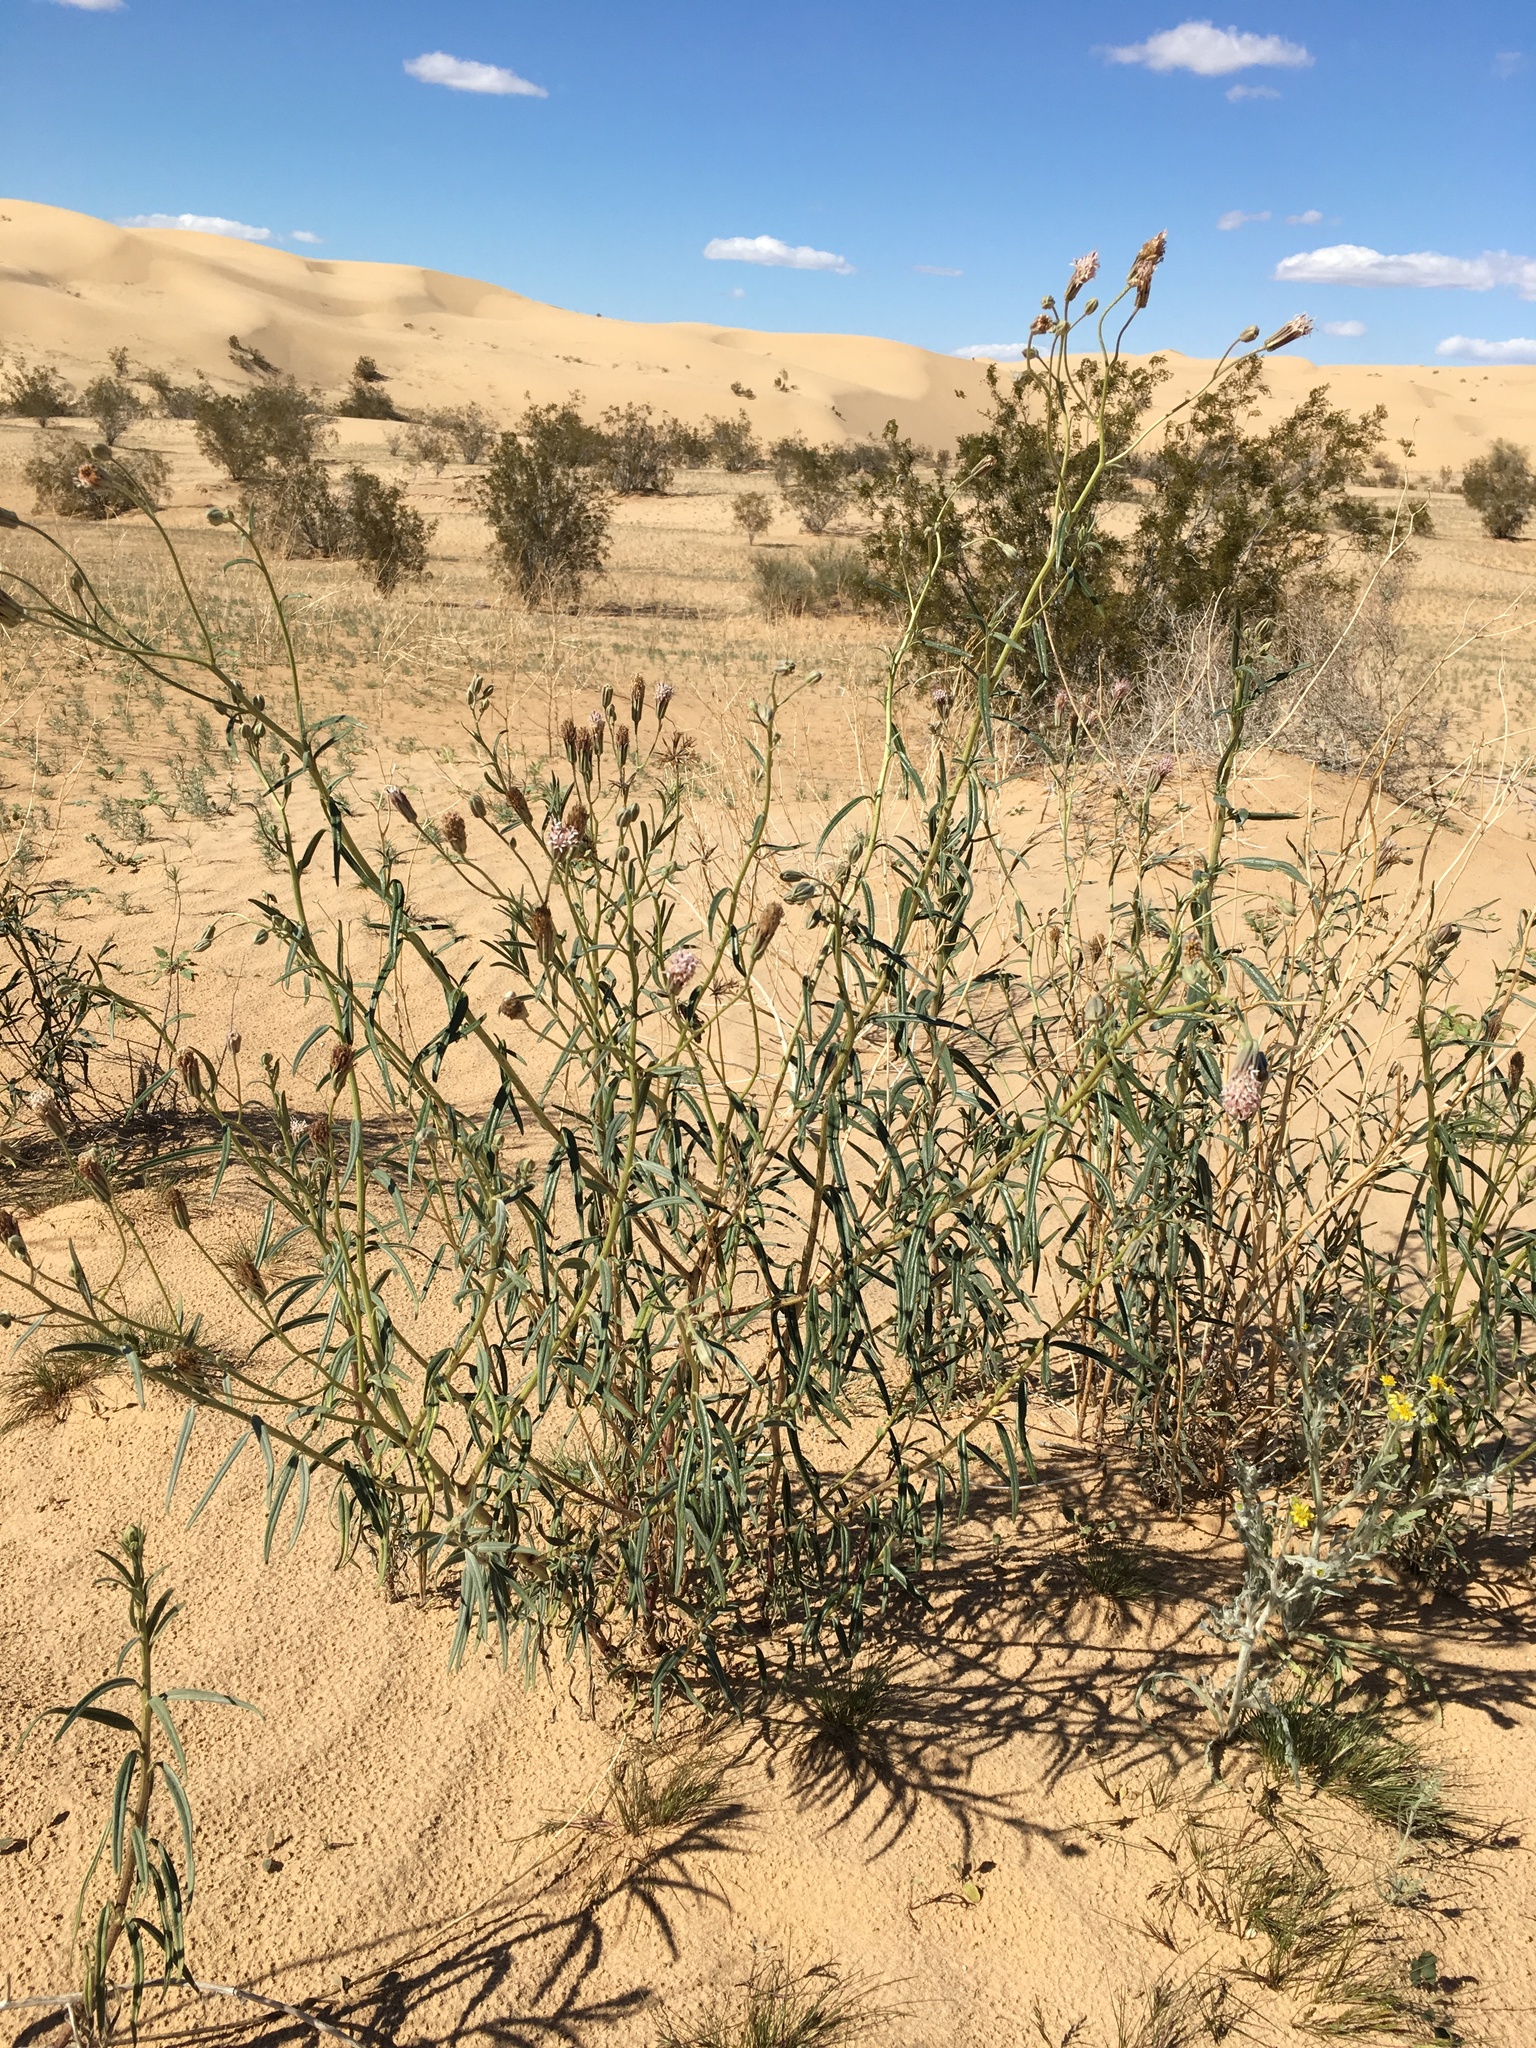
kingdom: Plantae
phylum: Tracheophyta
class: Magnoliopsida
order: Asterales
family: Asteraceae
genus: Palafoxia
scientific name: Palafoxia arida
